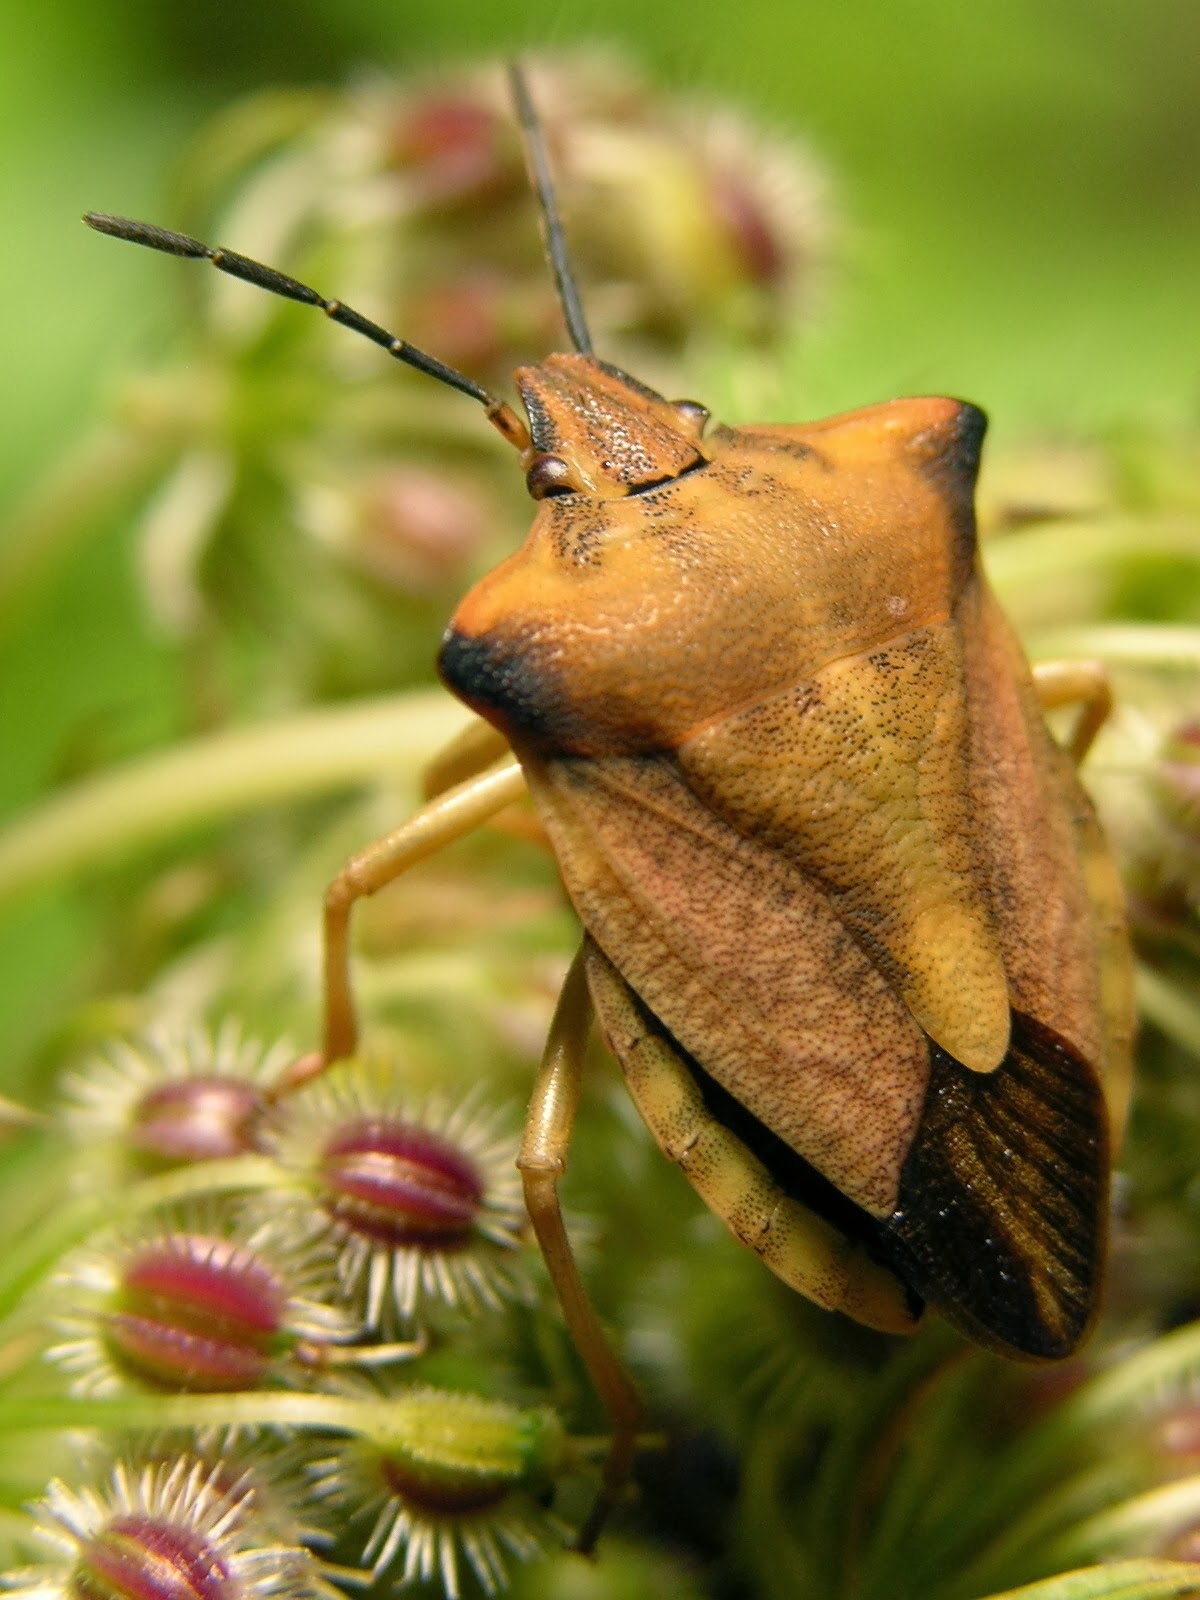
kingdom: Animalia
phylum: Arthropoda
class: Insecta
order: Hemiptera
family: Pentatomidae
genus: Carpocoris
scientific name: Carpocoris fuscispinus
